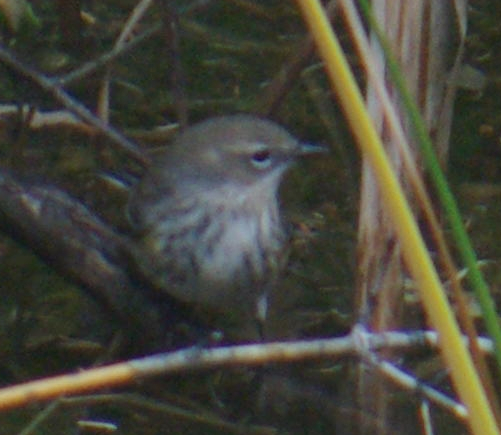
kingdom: Animalia
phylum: Chordata
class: Aves
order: Passeriformes
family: Parulidae
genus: Setophaga
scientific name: Setophaga coronata
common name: Myrtle warbler
